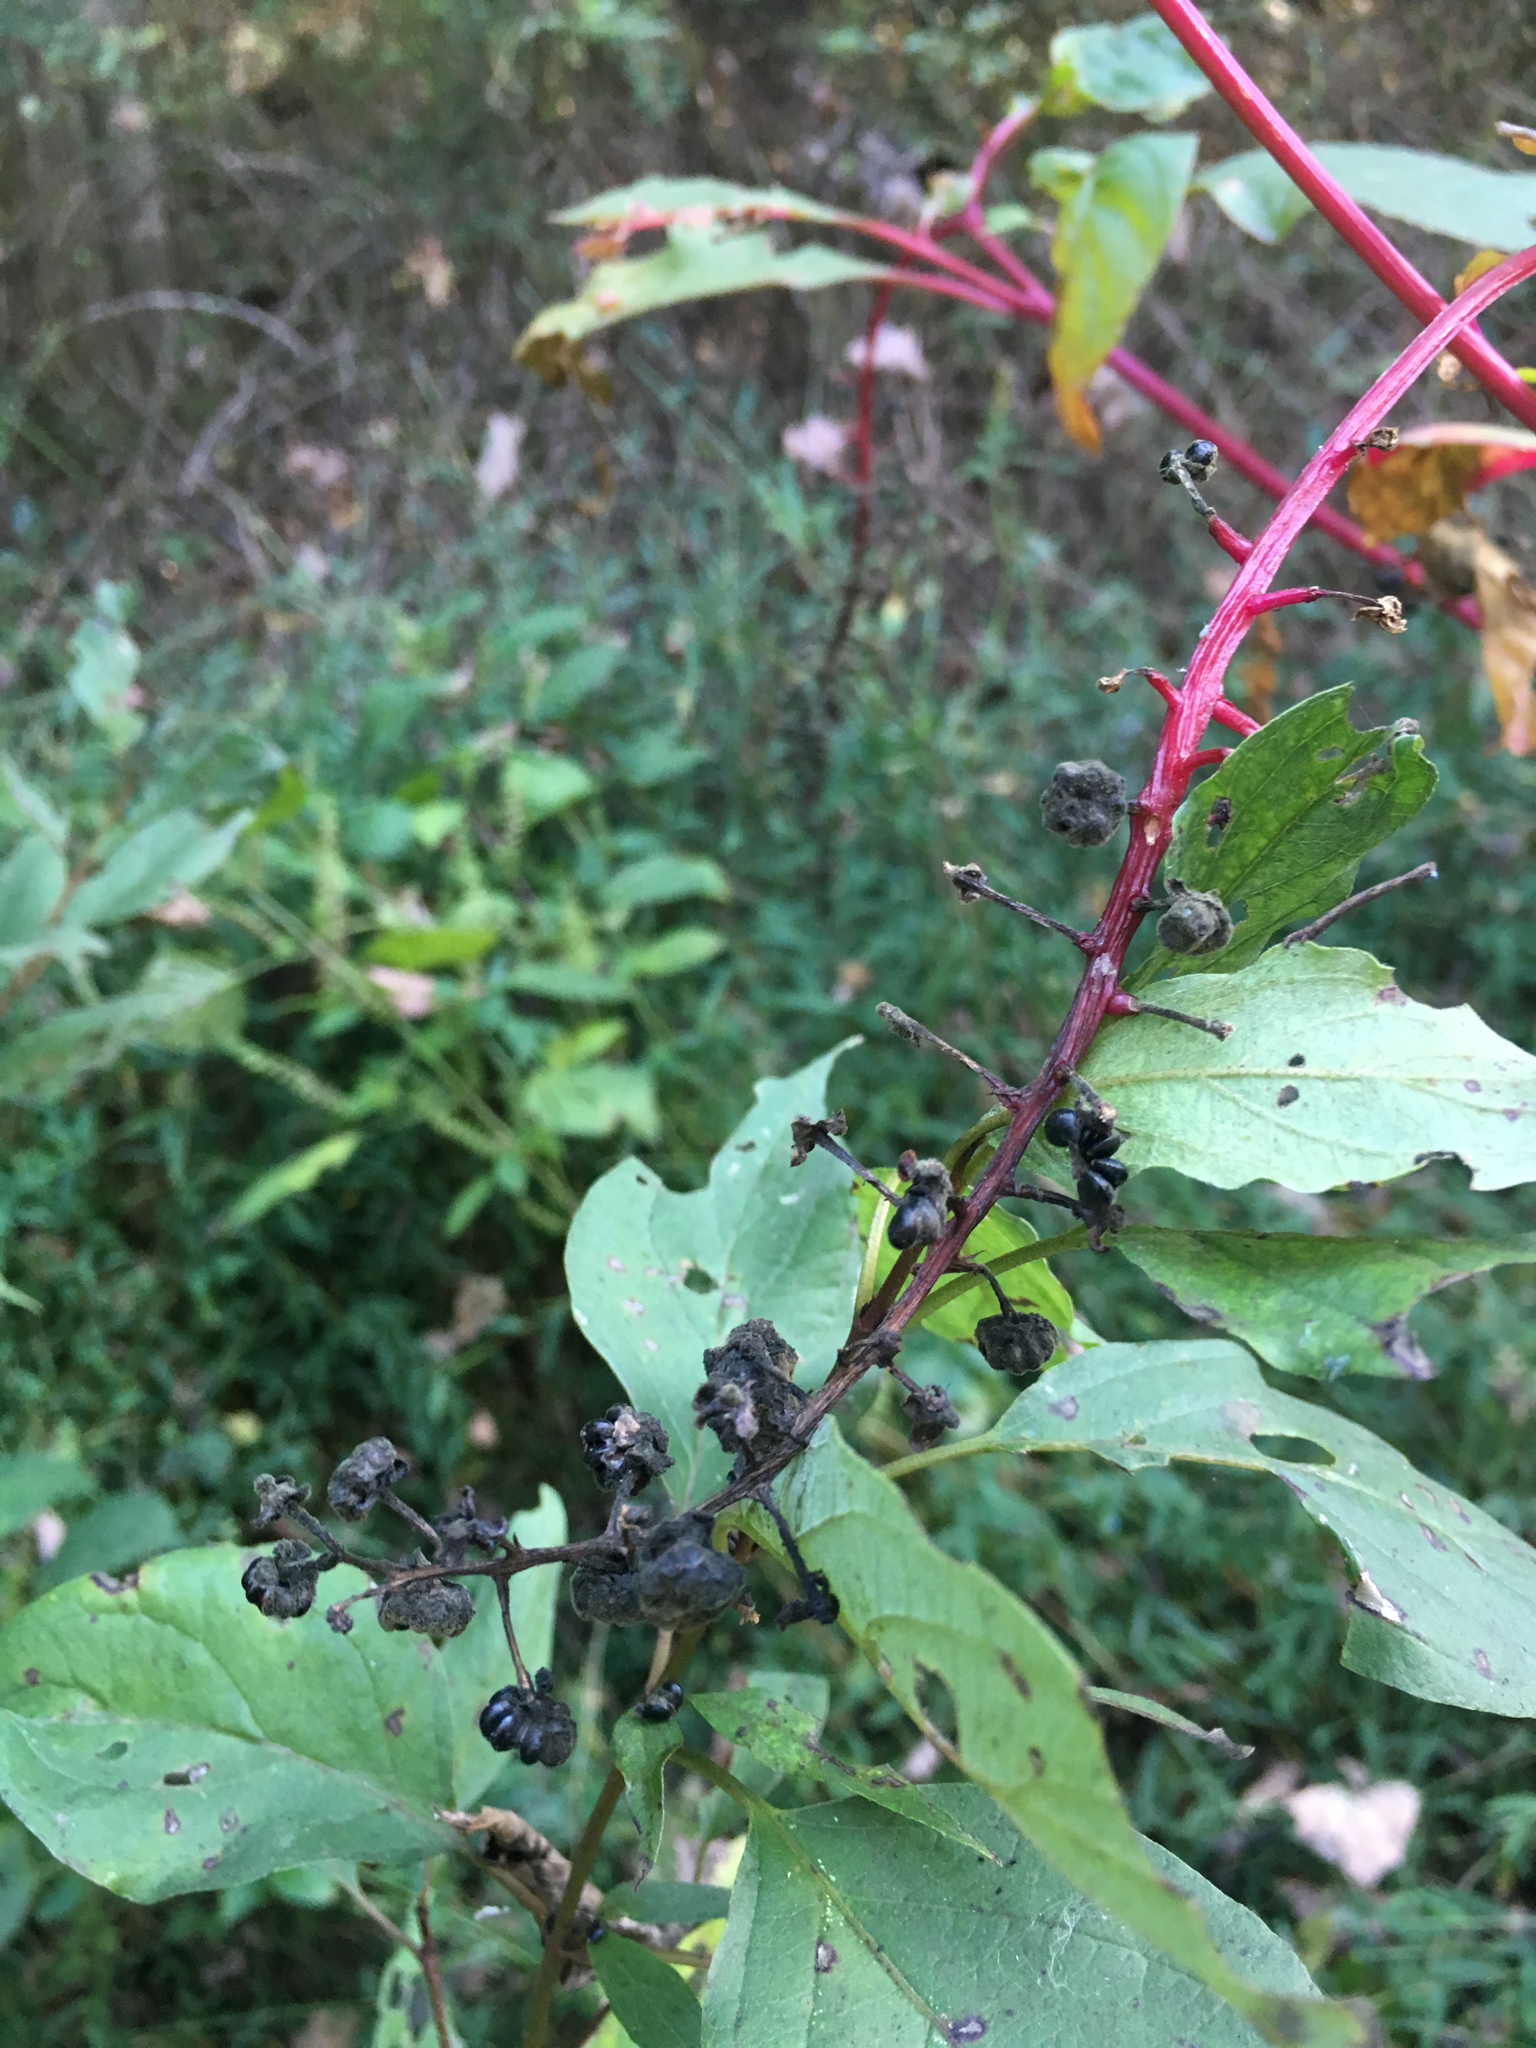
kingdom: Plantae
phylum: Tracheophyta
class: Magnoliopsida
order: Caryophyllales
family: Phytolaccaceae
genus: Phytolacca
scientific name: Phytolacca americana
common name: American pokeweed
